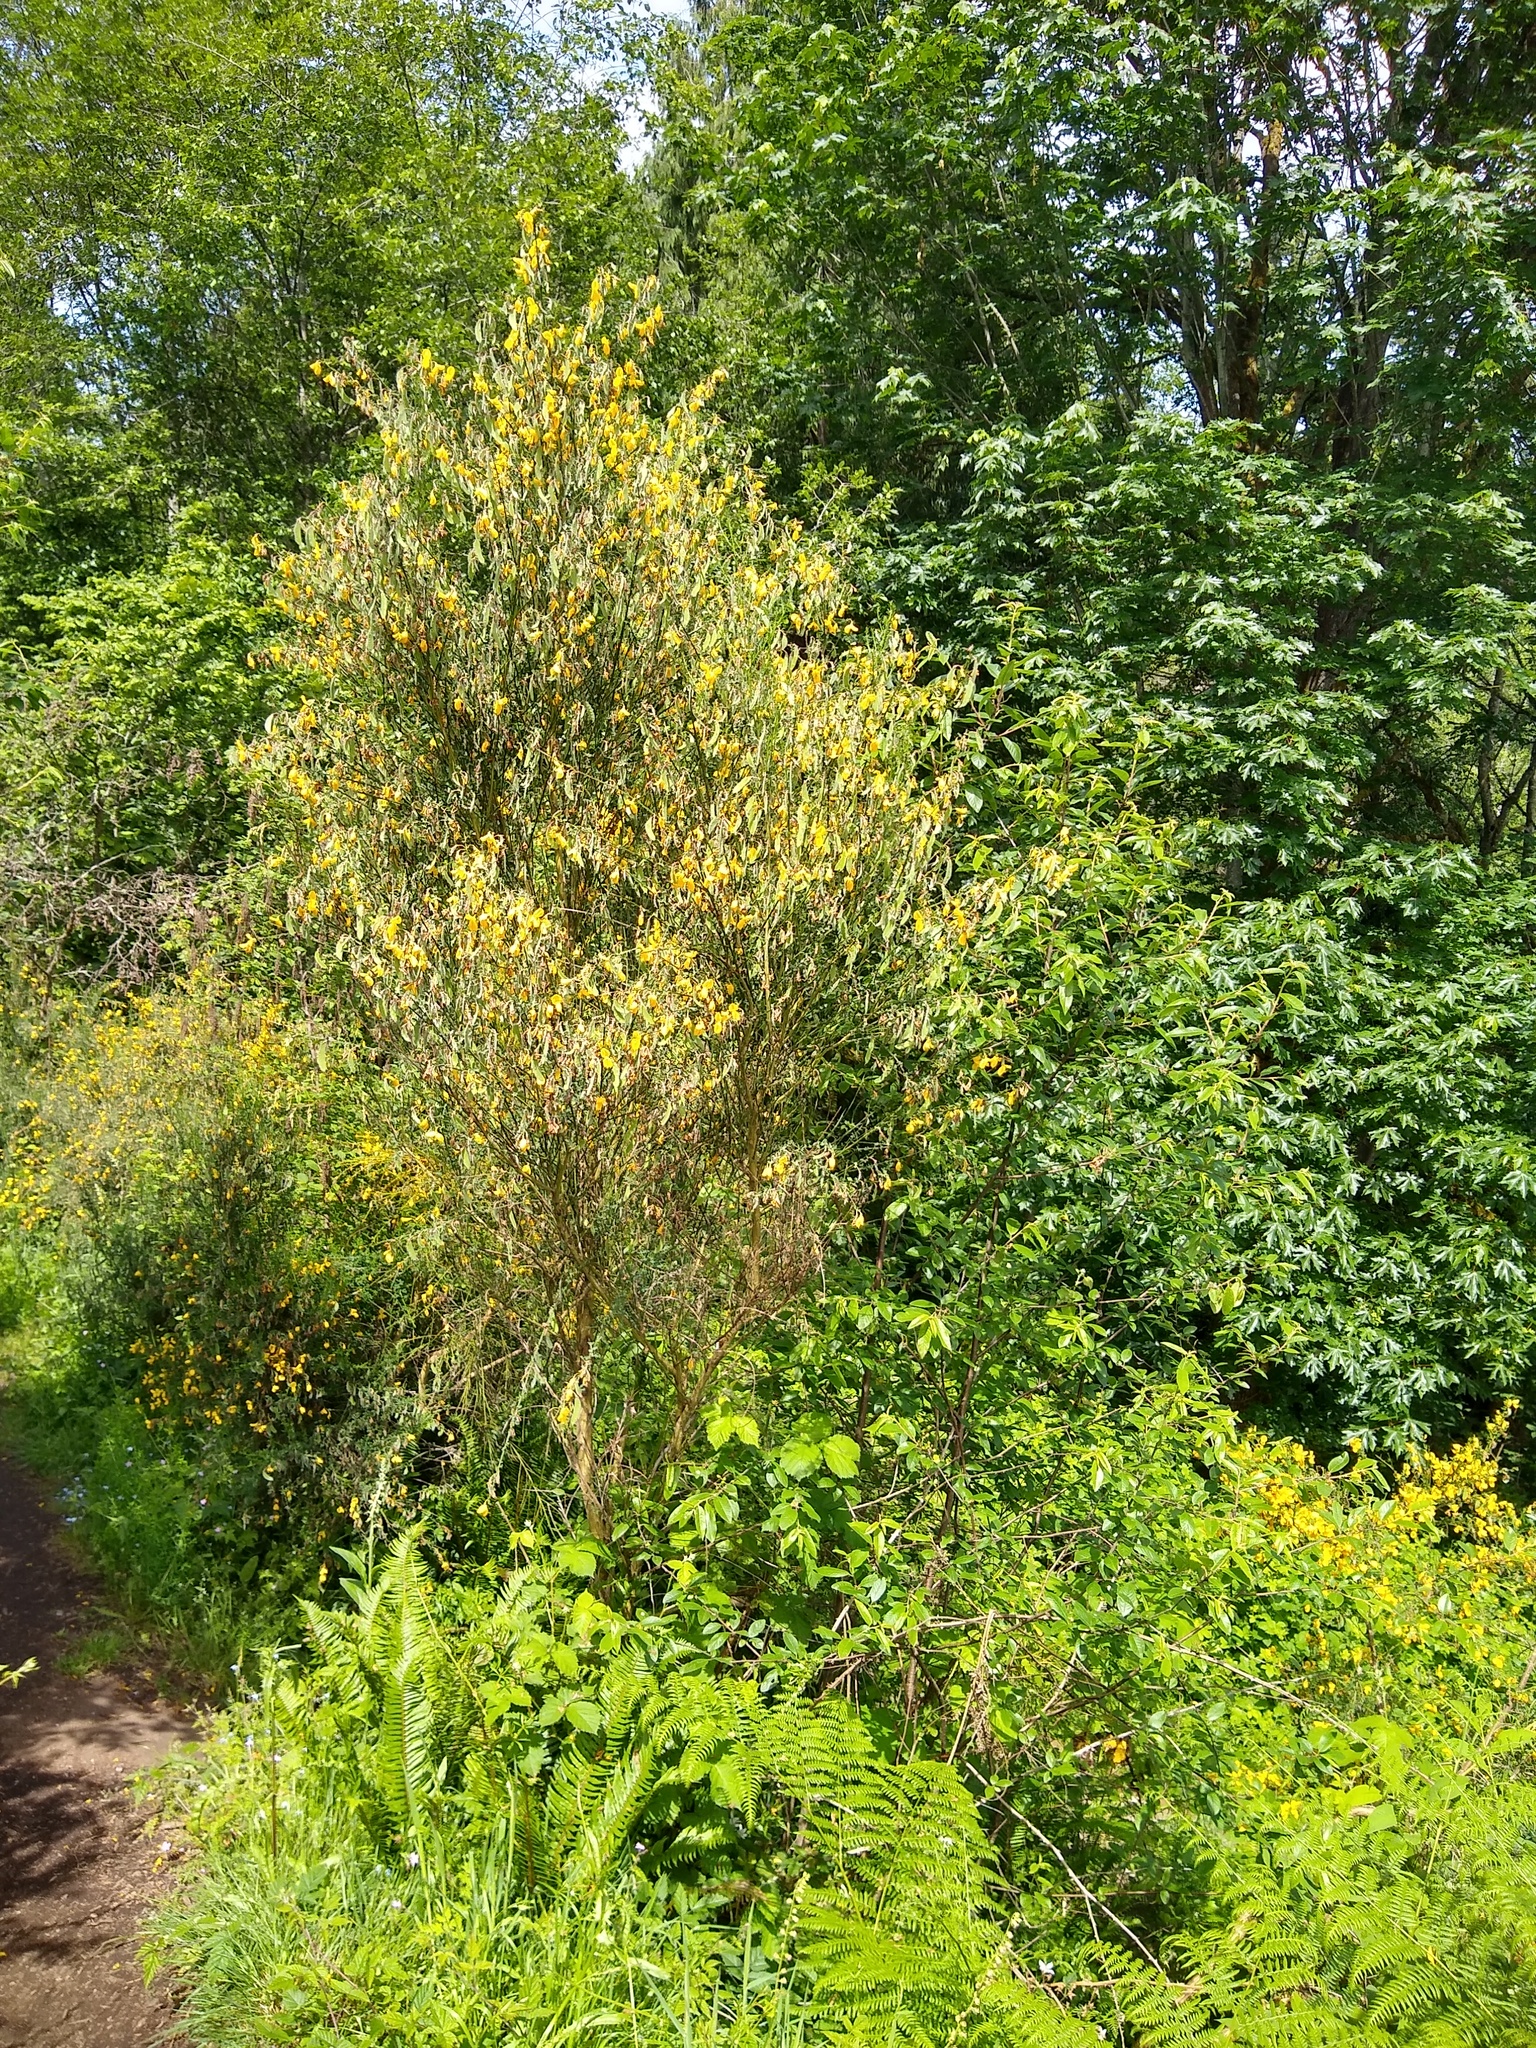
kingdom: Plantae
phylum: Tracheophyta
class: Magnoliopsida
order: Fabales
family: Fabaceae
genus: Cytisus
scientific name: Cytisus scoparius
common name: Scotch broom
